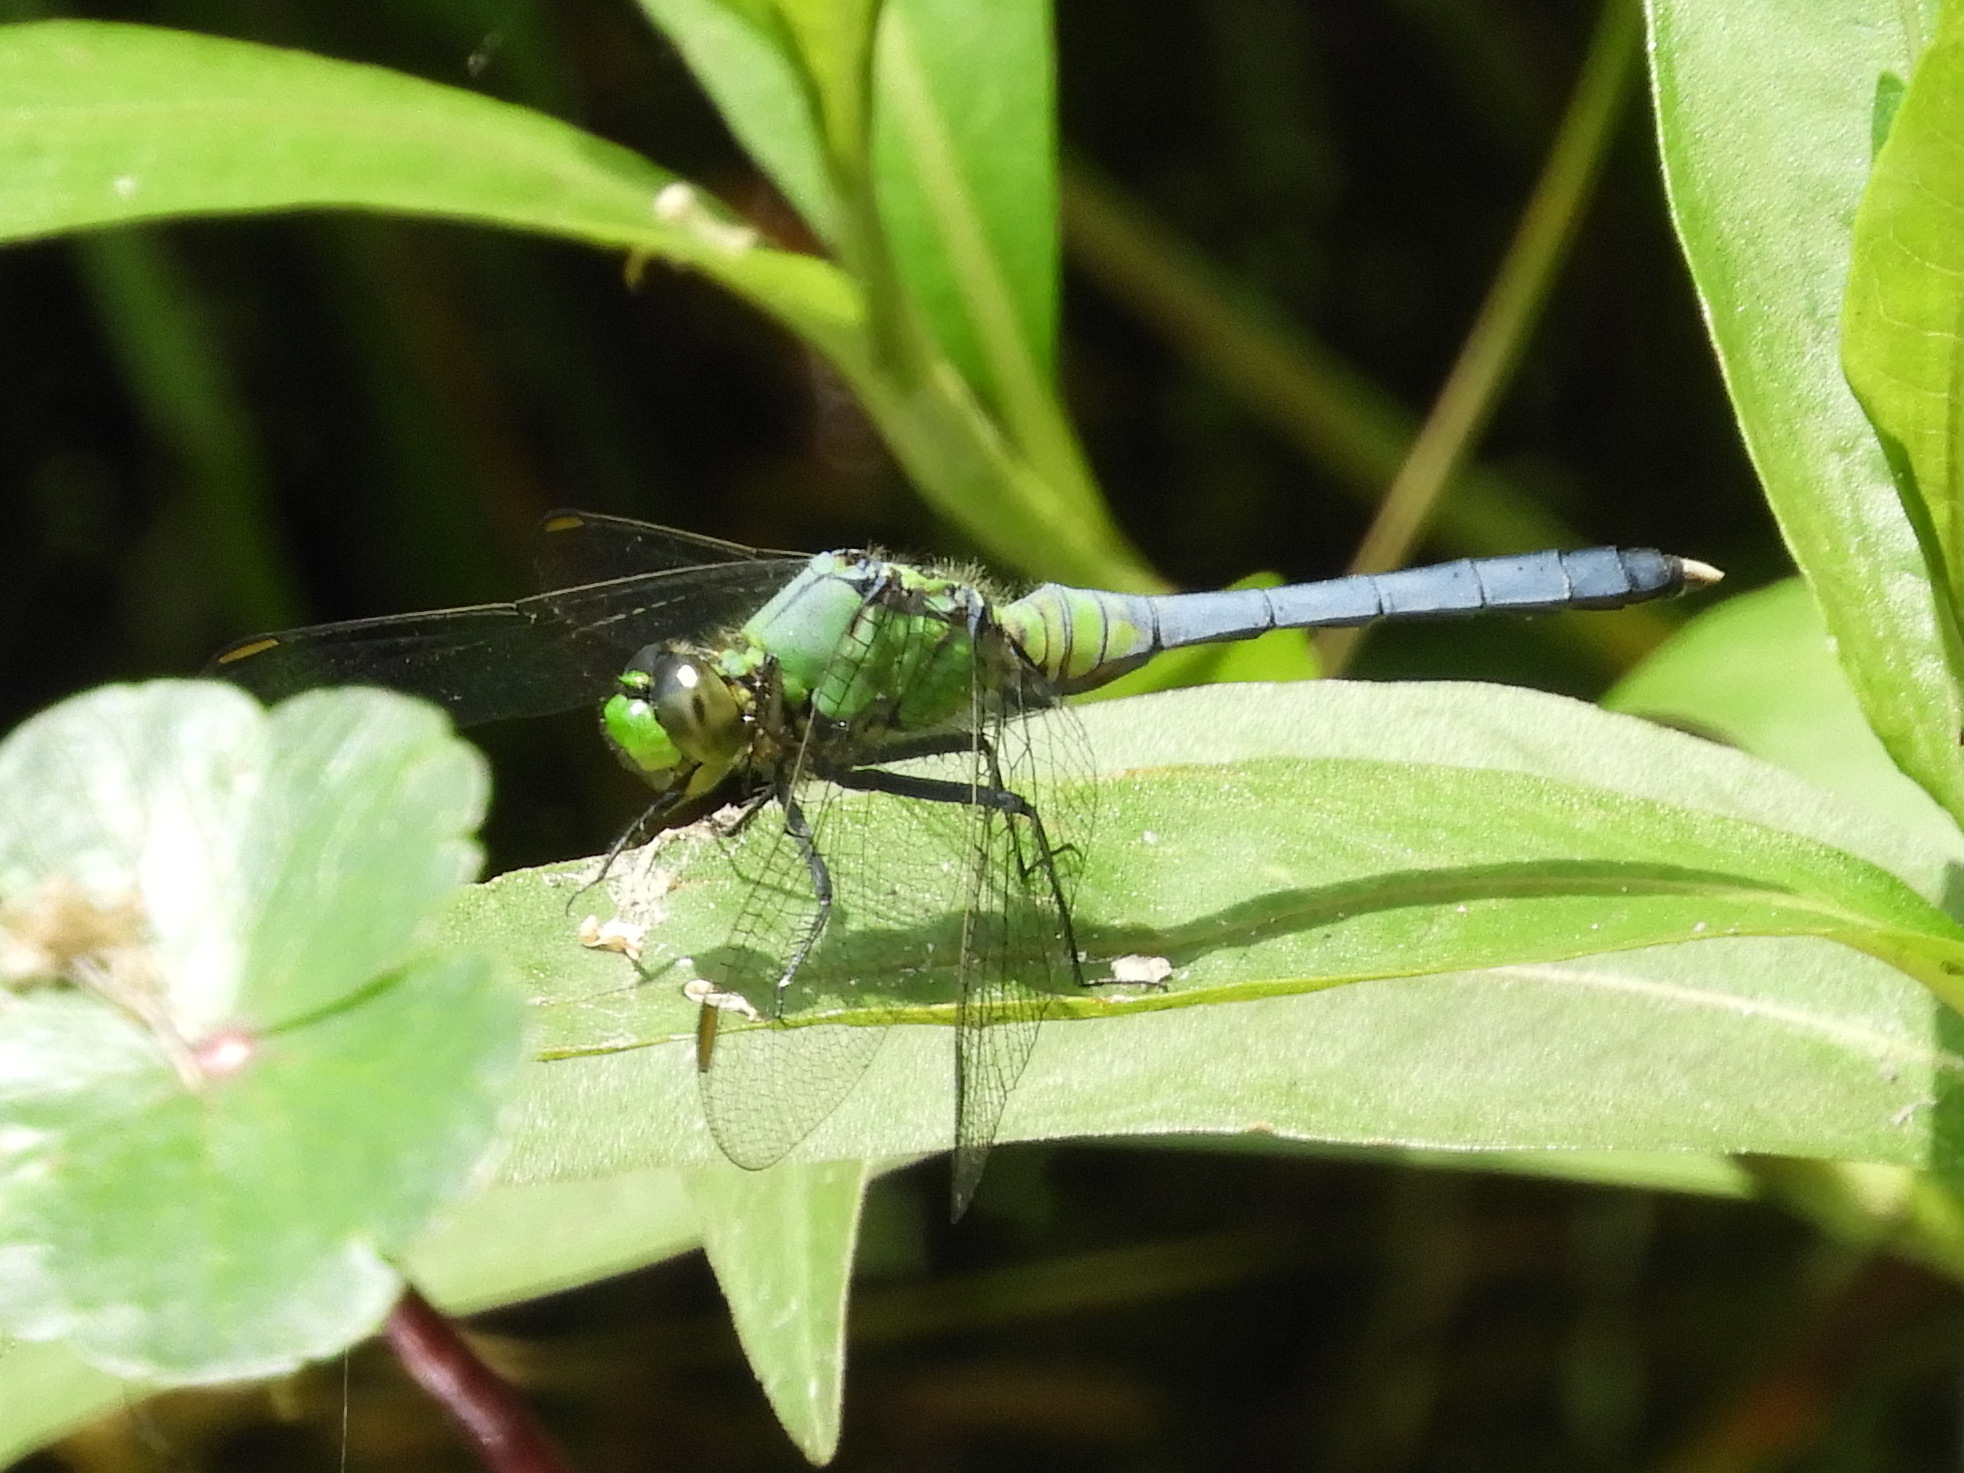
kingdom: Animalia
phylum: Arthropoda
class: Insecta
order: Odonata
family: Libellulidae
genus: Erythemis
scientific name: Erythemis simplicicollis
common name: Eastern pondhawk
